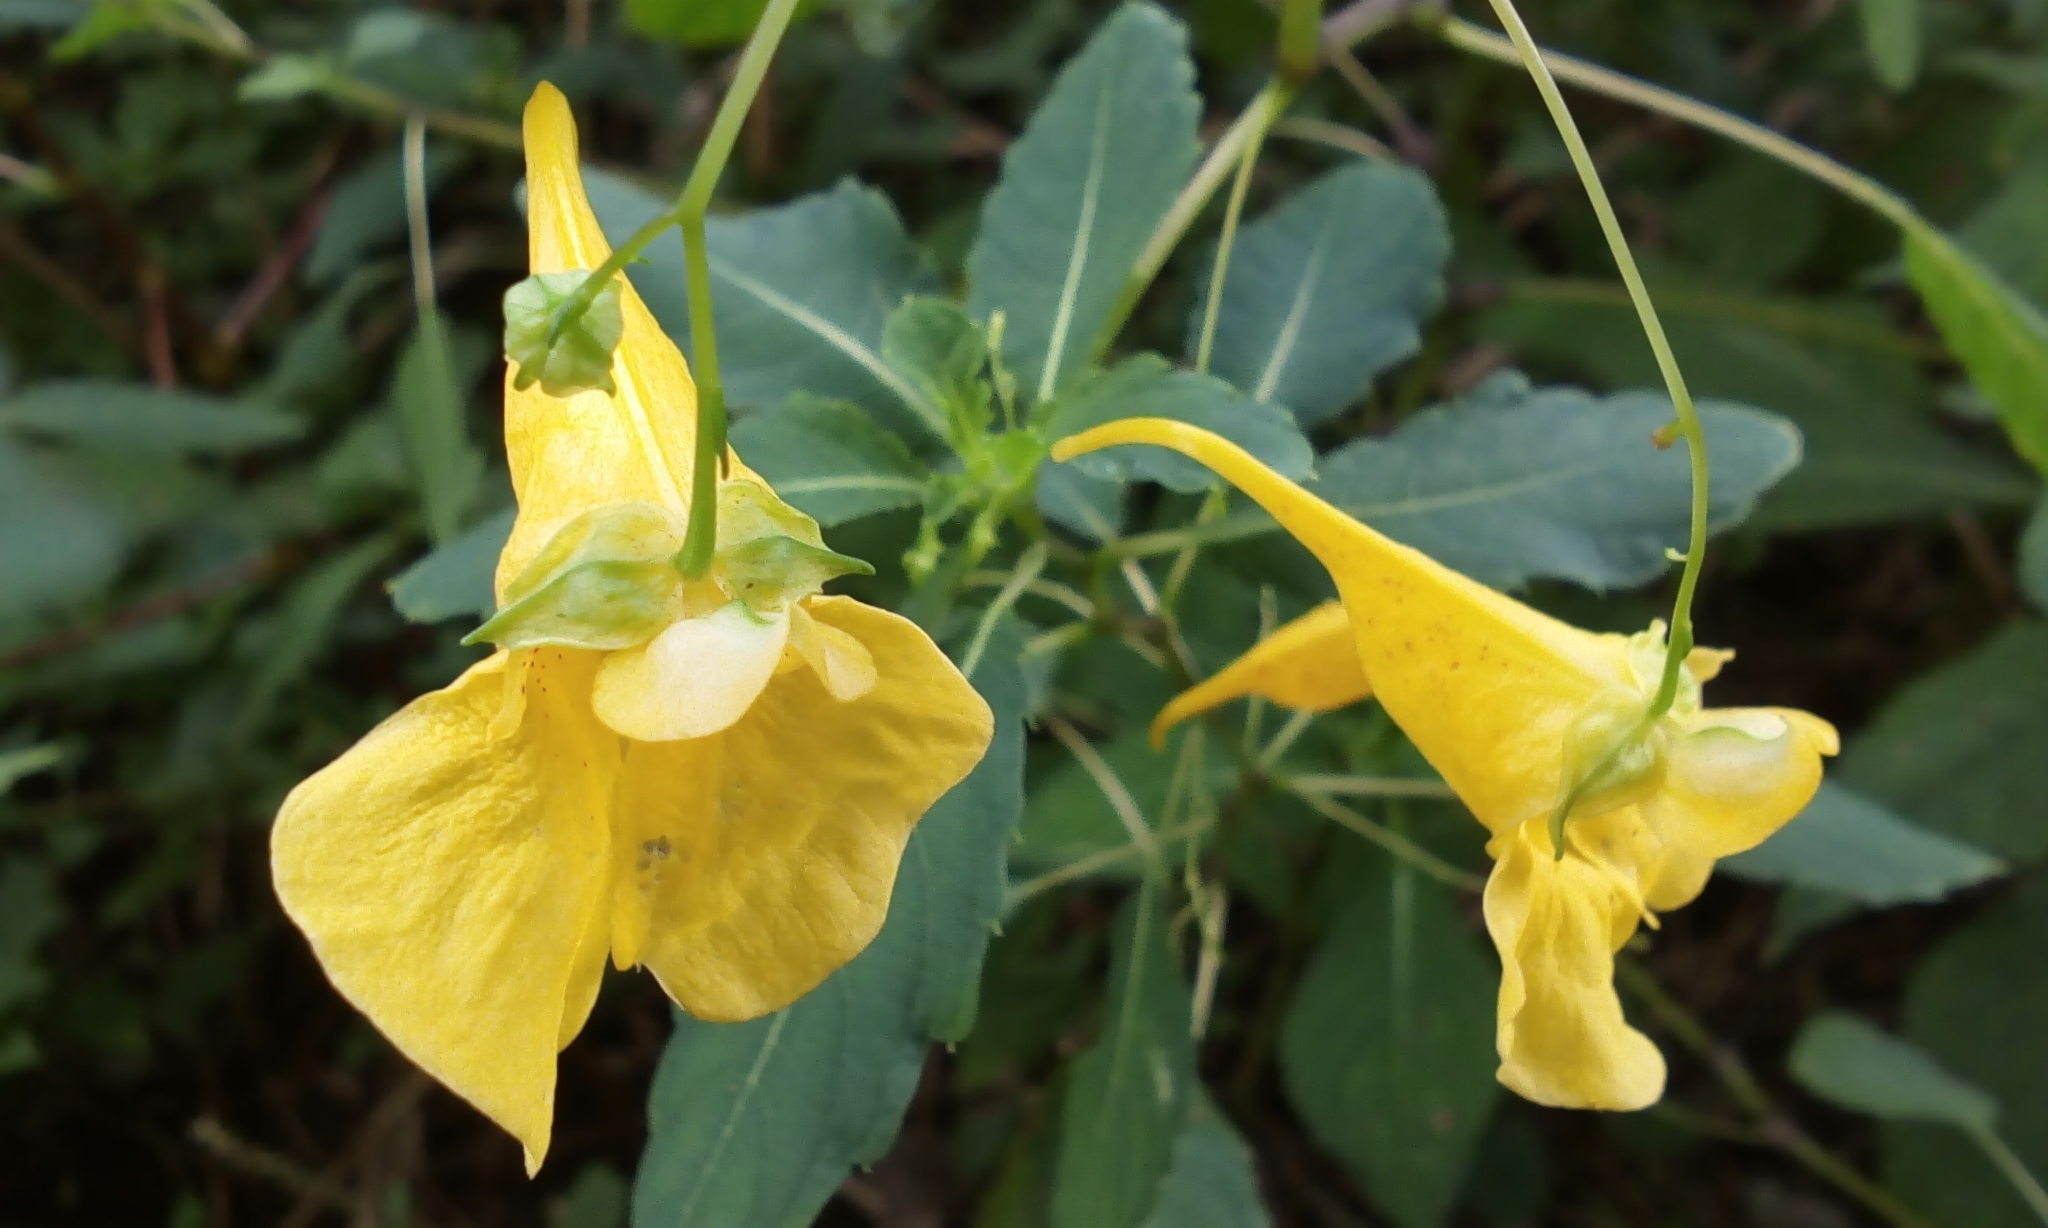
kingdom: Plantae
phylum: Tracheophyta
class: Magnoliopsida
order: Ericales
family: Balsaminaceae
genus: Impatiens
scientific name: Impatiens noli-tangere
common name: Touch-me-not balsam
